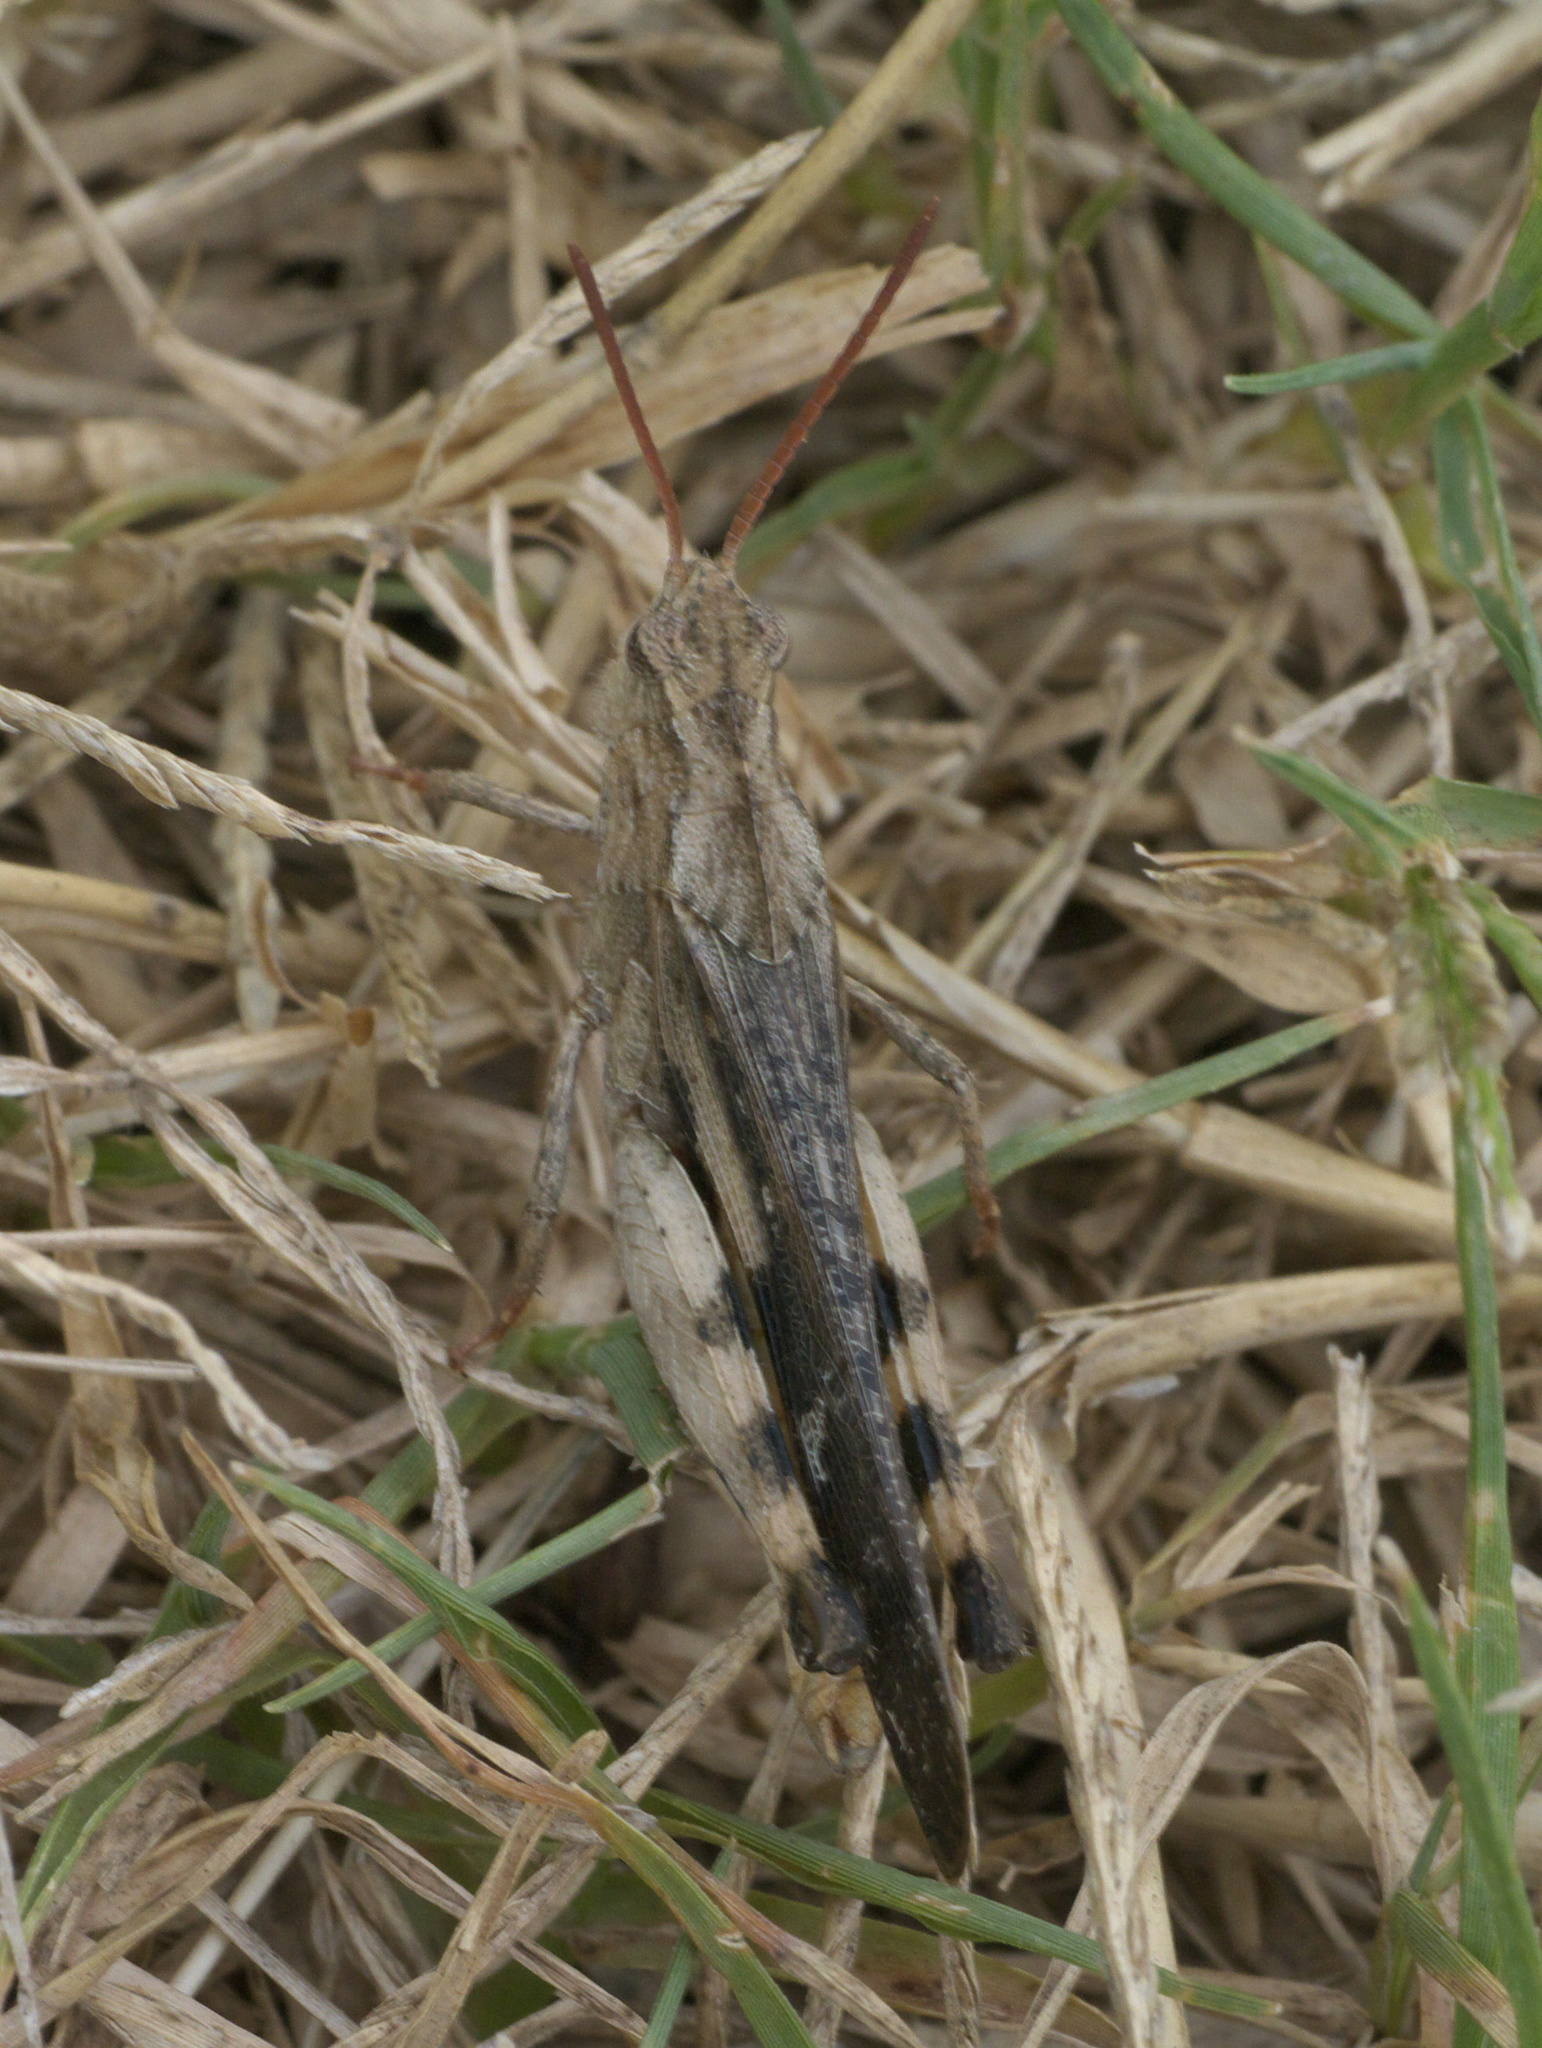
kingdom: Animalia
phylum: Arthropoda
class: Insecta
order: Orthoptera
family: Acrididae
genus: Chortophaga
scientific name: Chortophaga viridifasciata
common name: Green-striped grasshopper
